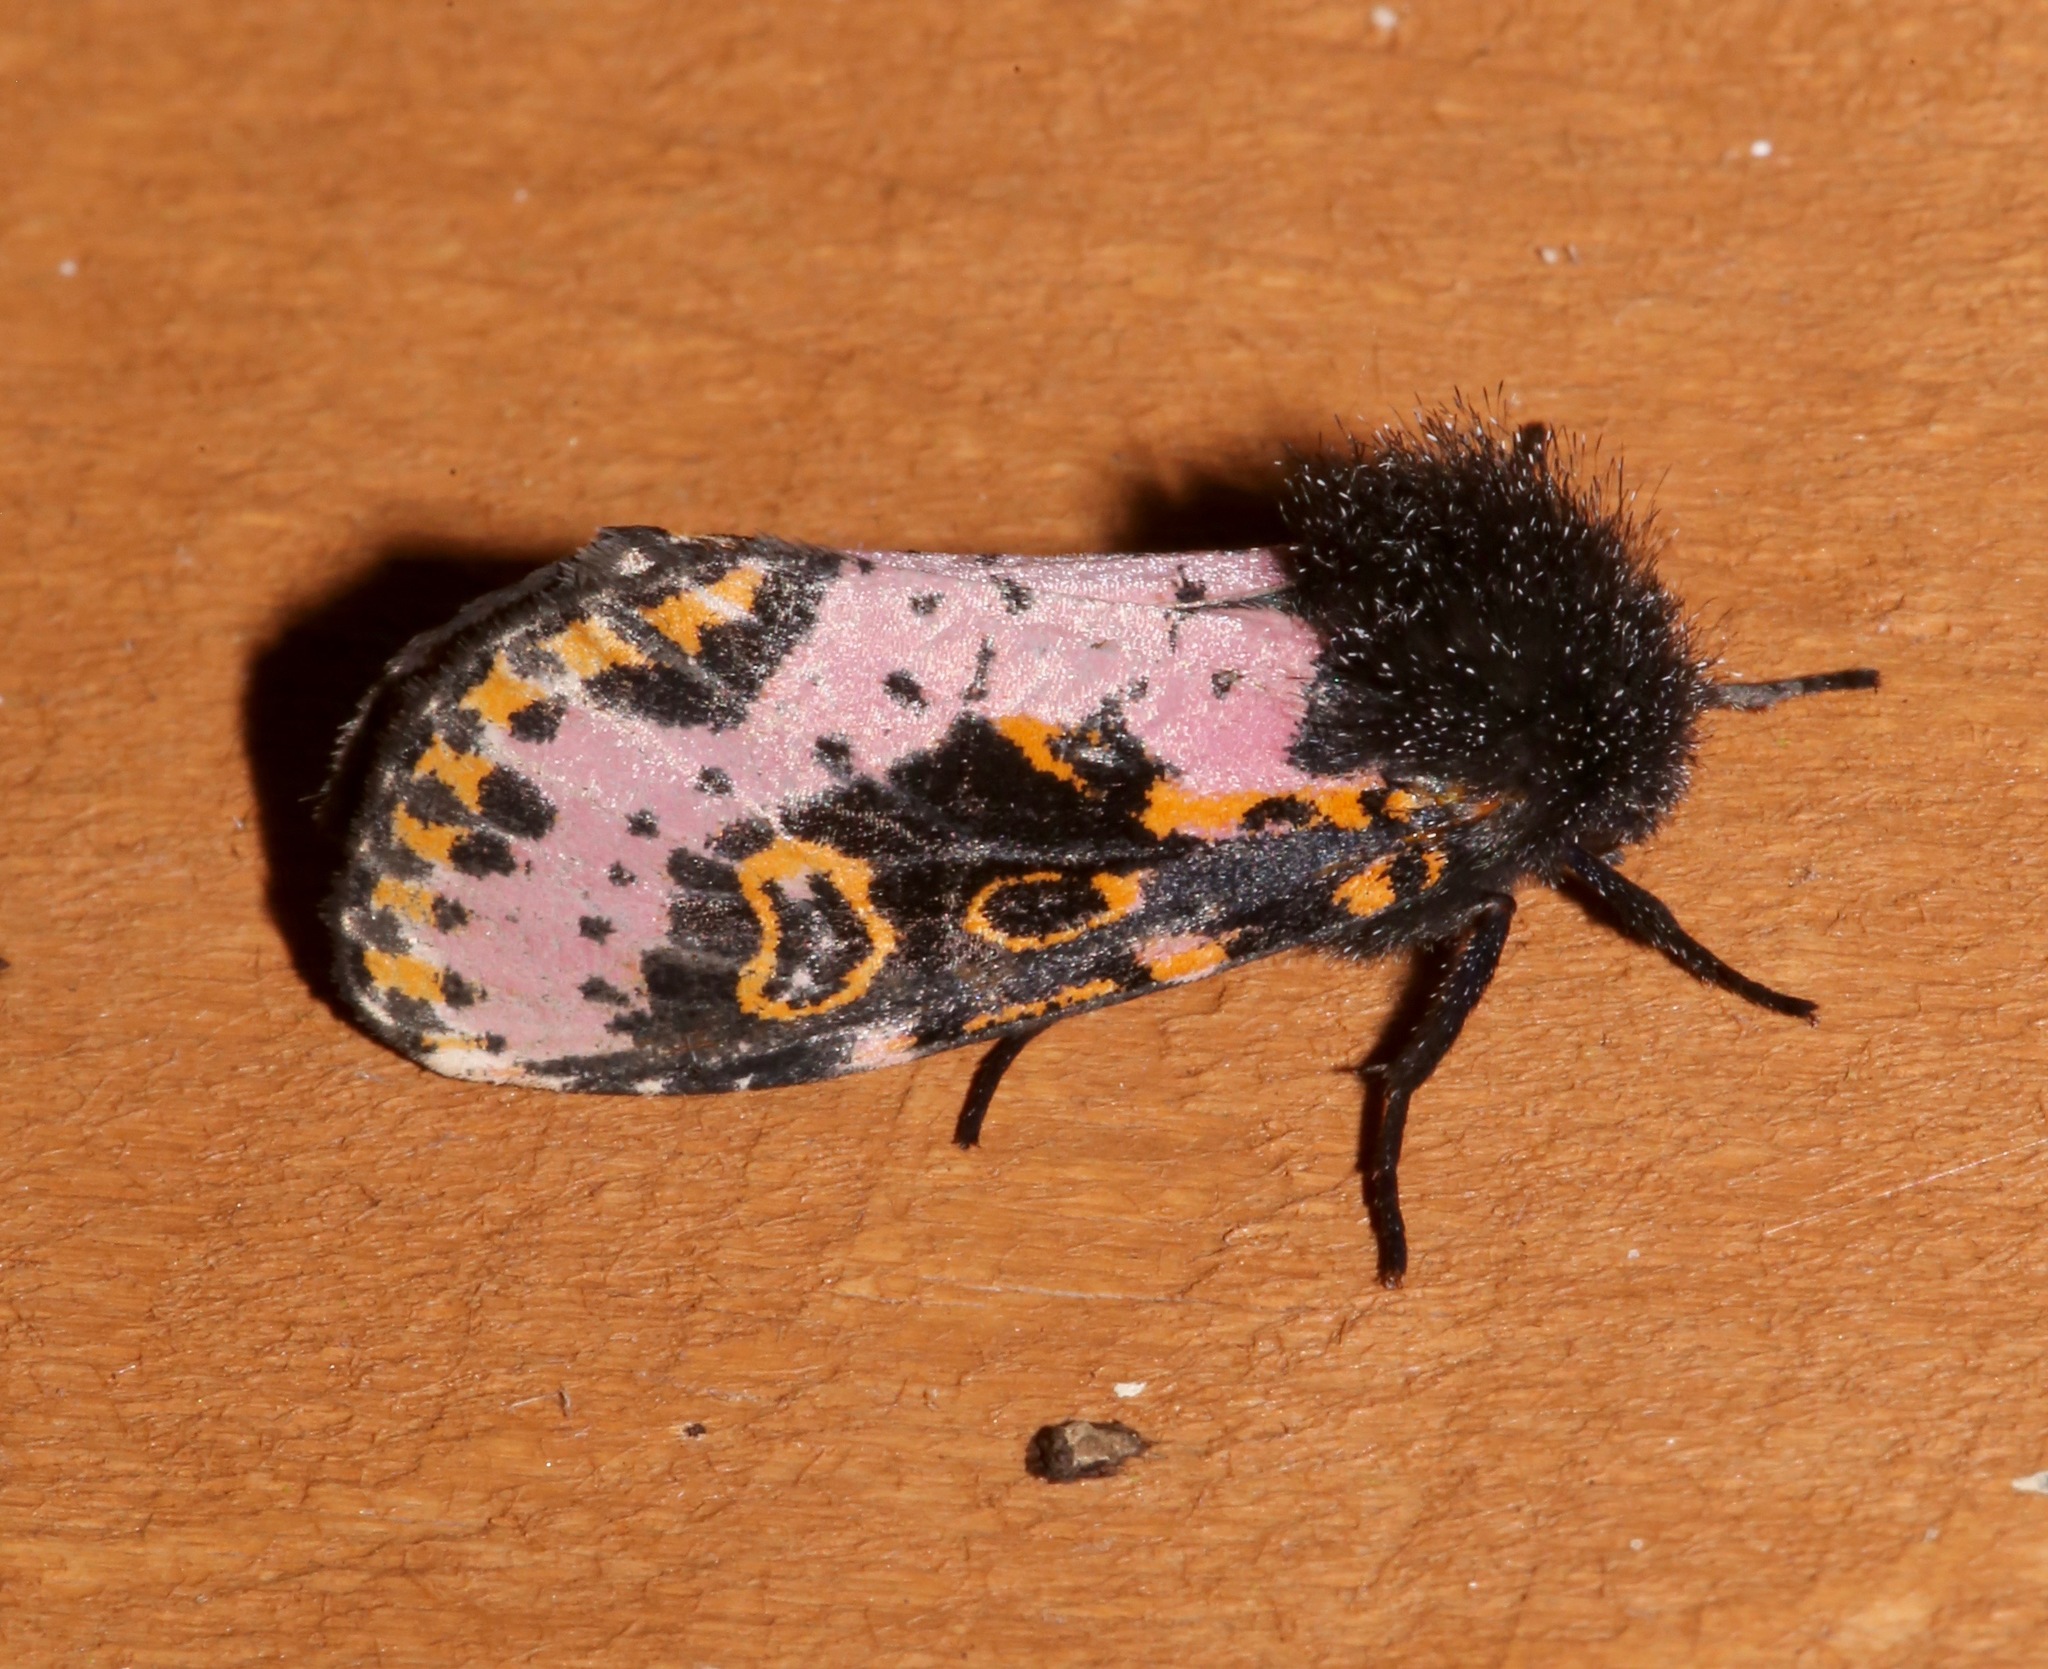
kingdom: Animalia
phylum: Arthropoda
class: Insecta
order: Lepidoptera
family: Noctuidae
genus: Xanthopastis
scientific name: Xanthopastis regnatrix
